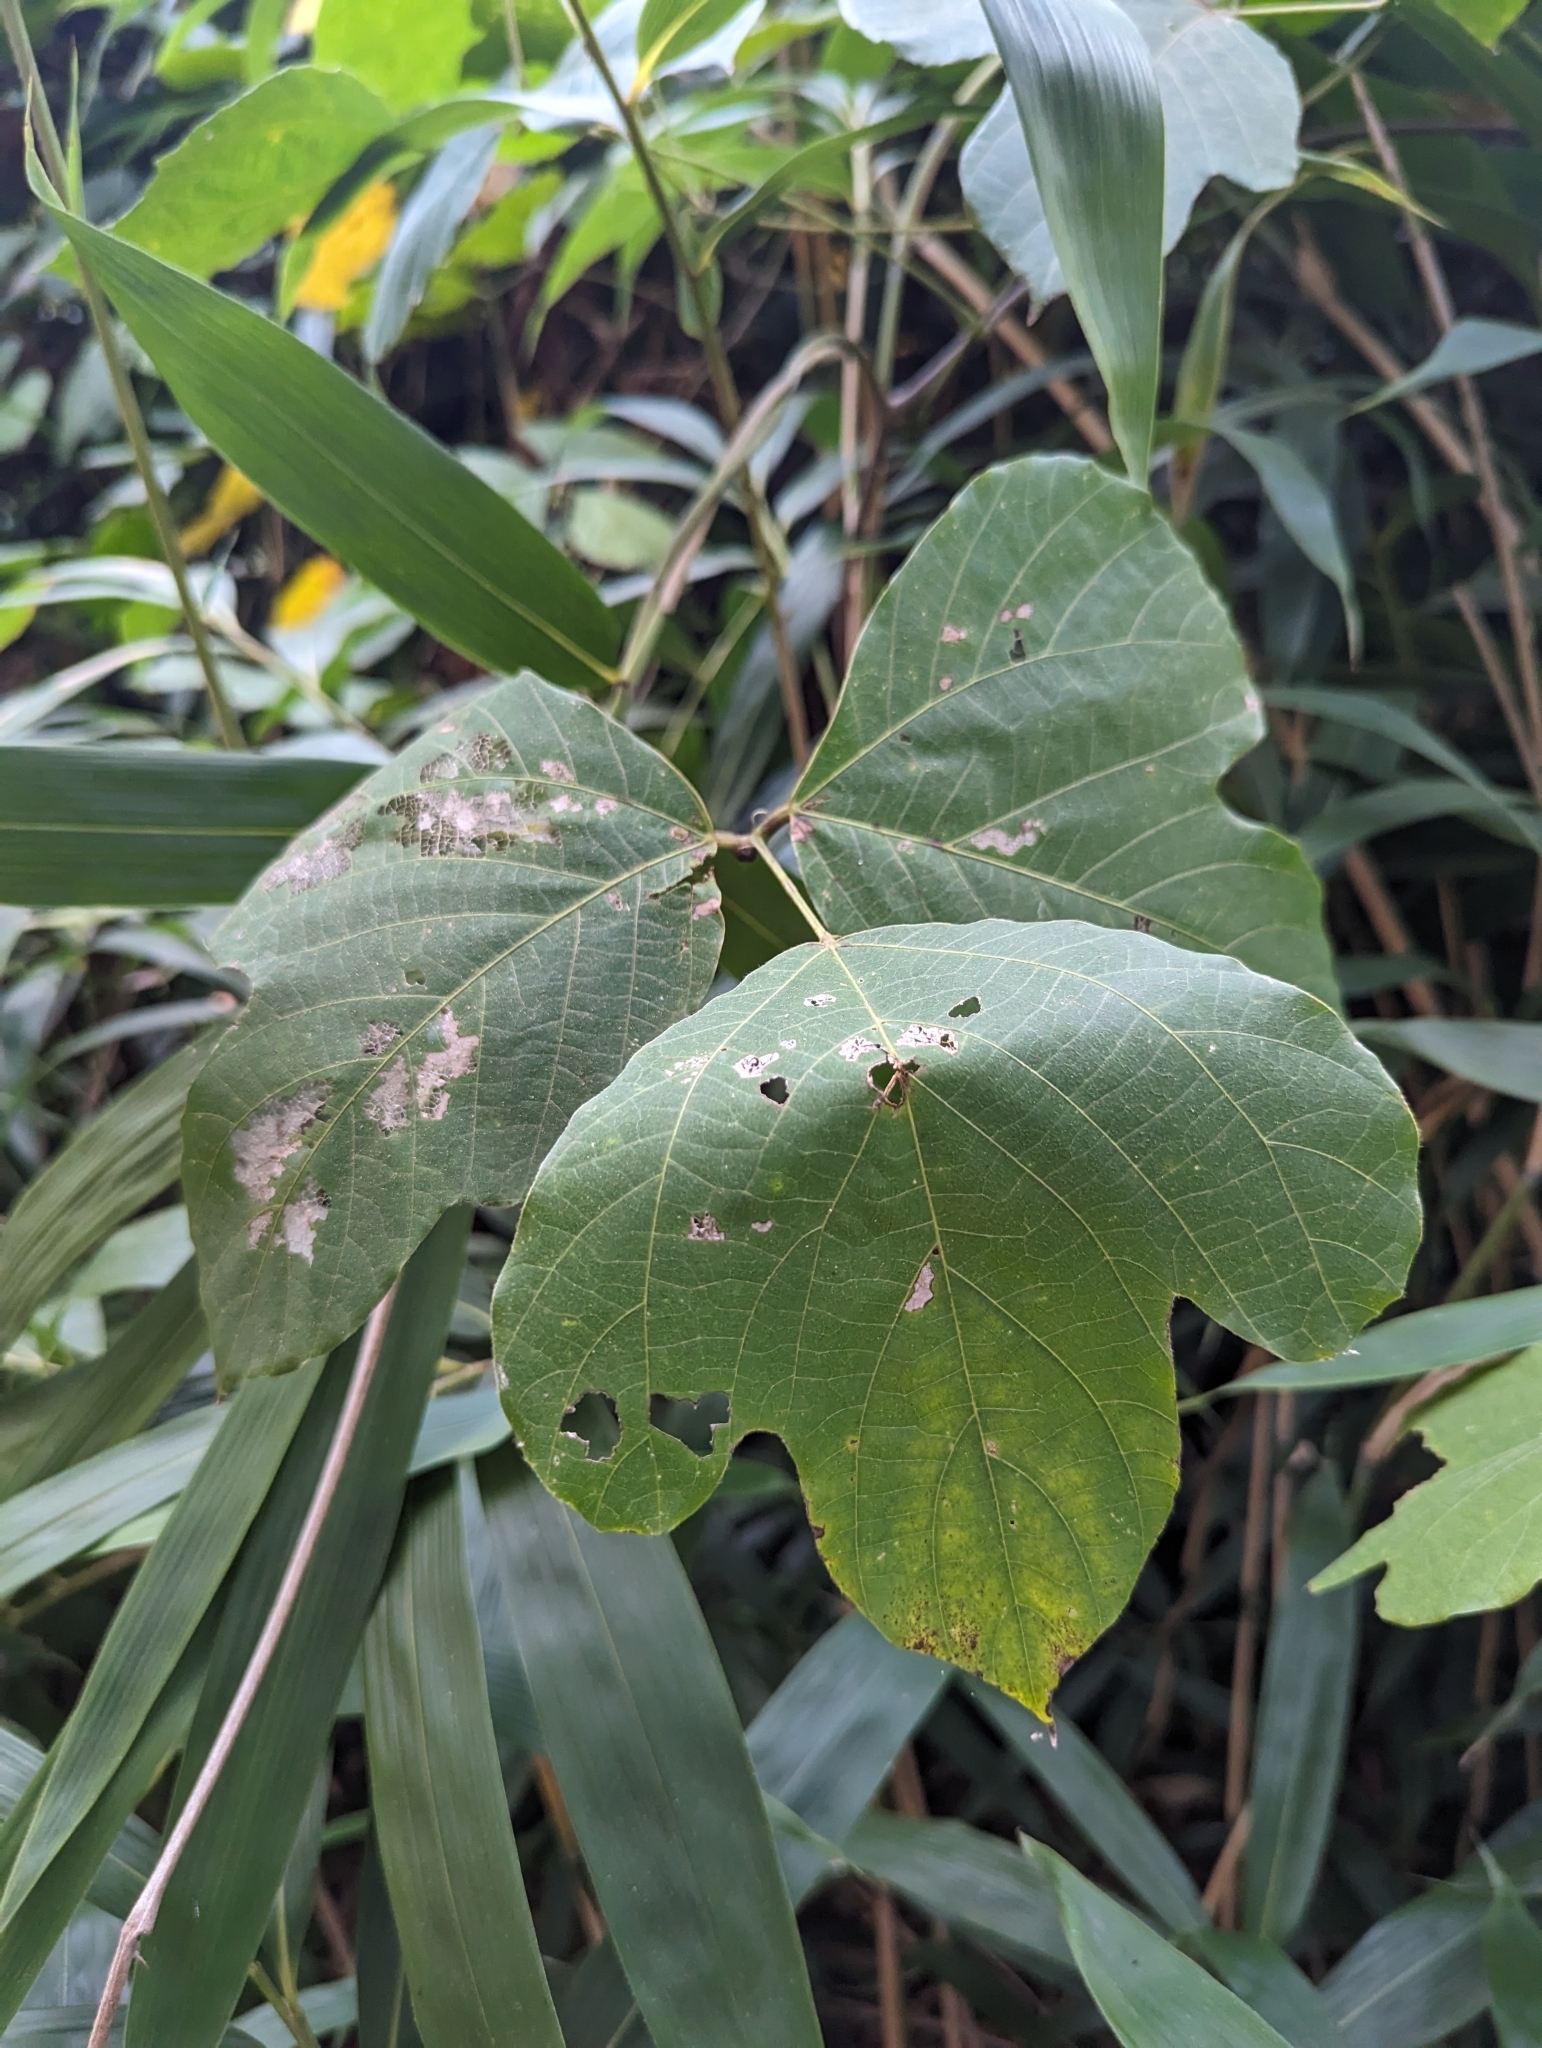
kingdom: Plantae
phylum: Tracheophyta
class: Magnoliopsida
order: Fabales
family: Fabaceae
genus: Pueraria
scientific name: Pueraria montana
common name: Kudzu
